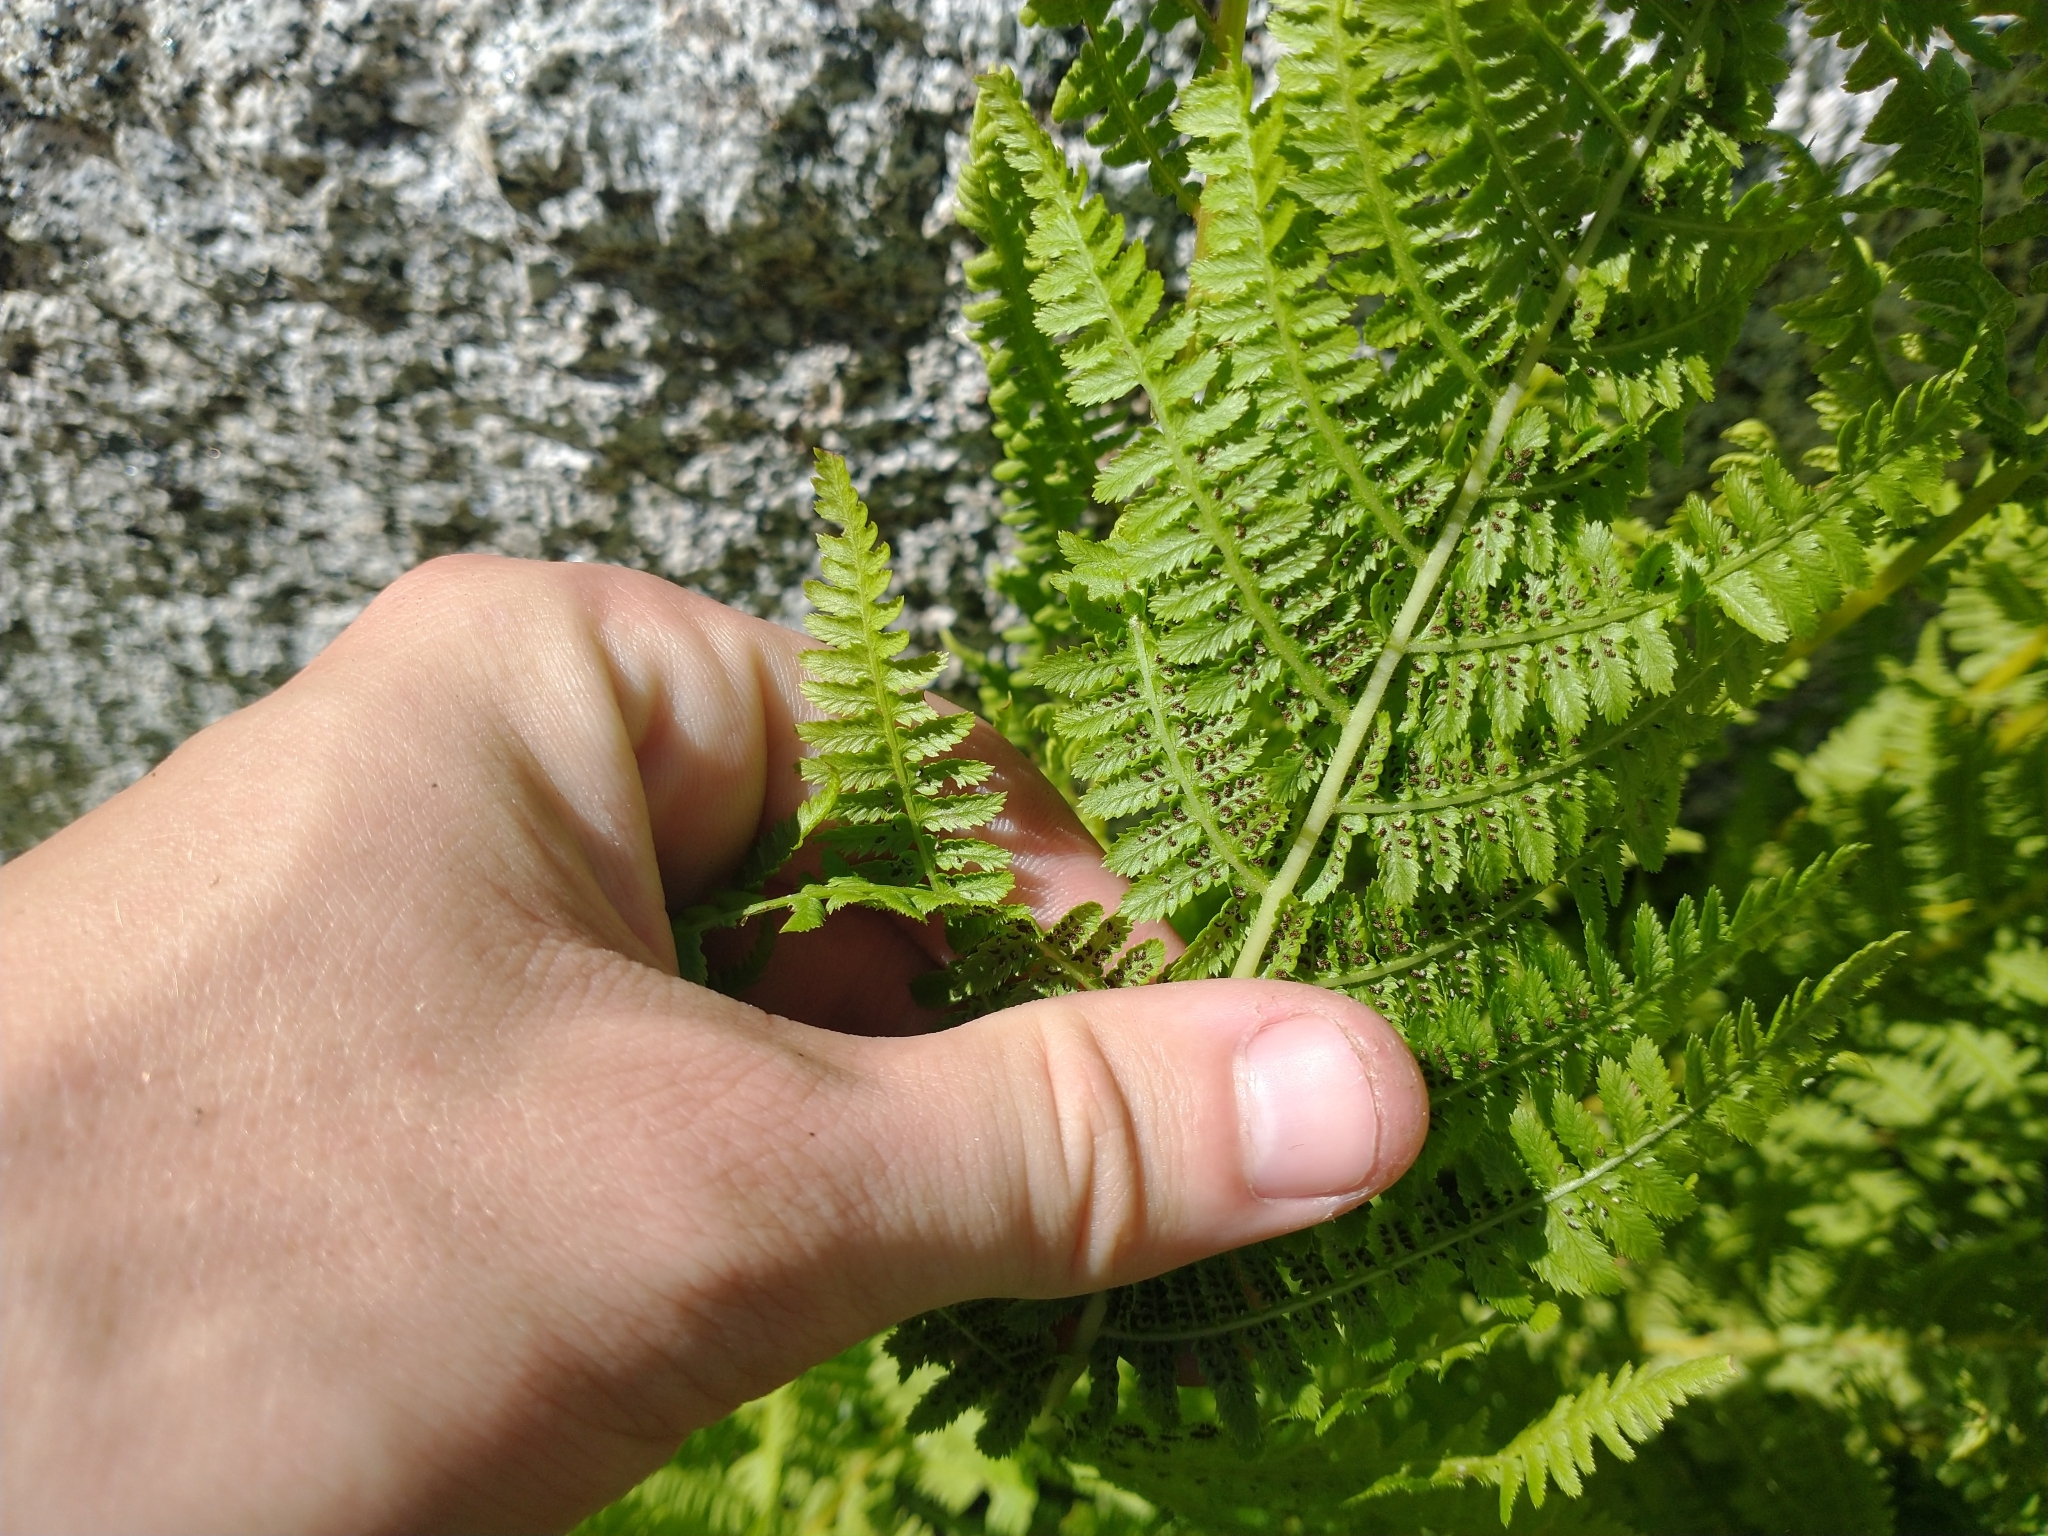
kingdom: Plantae
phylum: Tracheophyta
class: Polypodiopsida
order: Polypodiales
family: Athyriaceae
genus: Athyrium
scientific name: Athyrium cyclosorum
